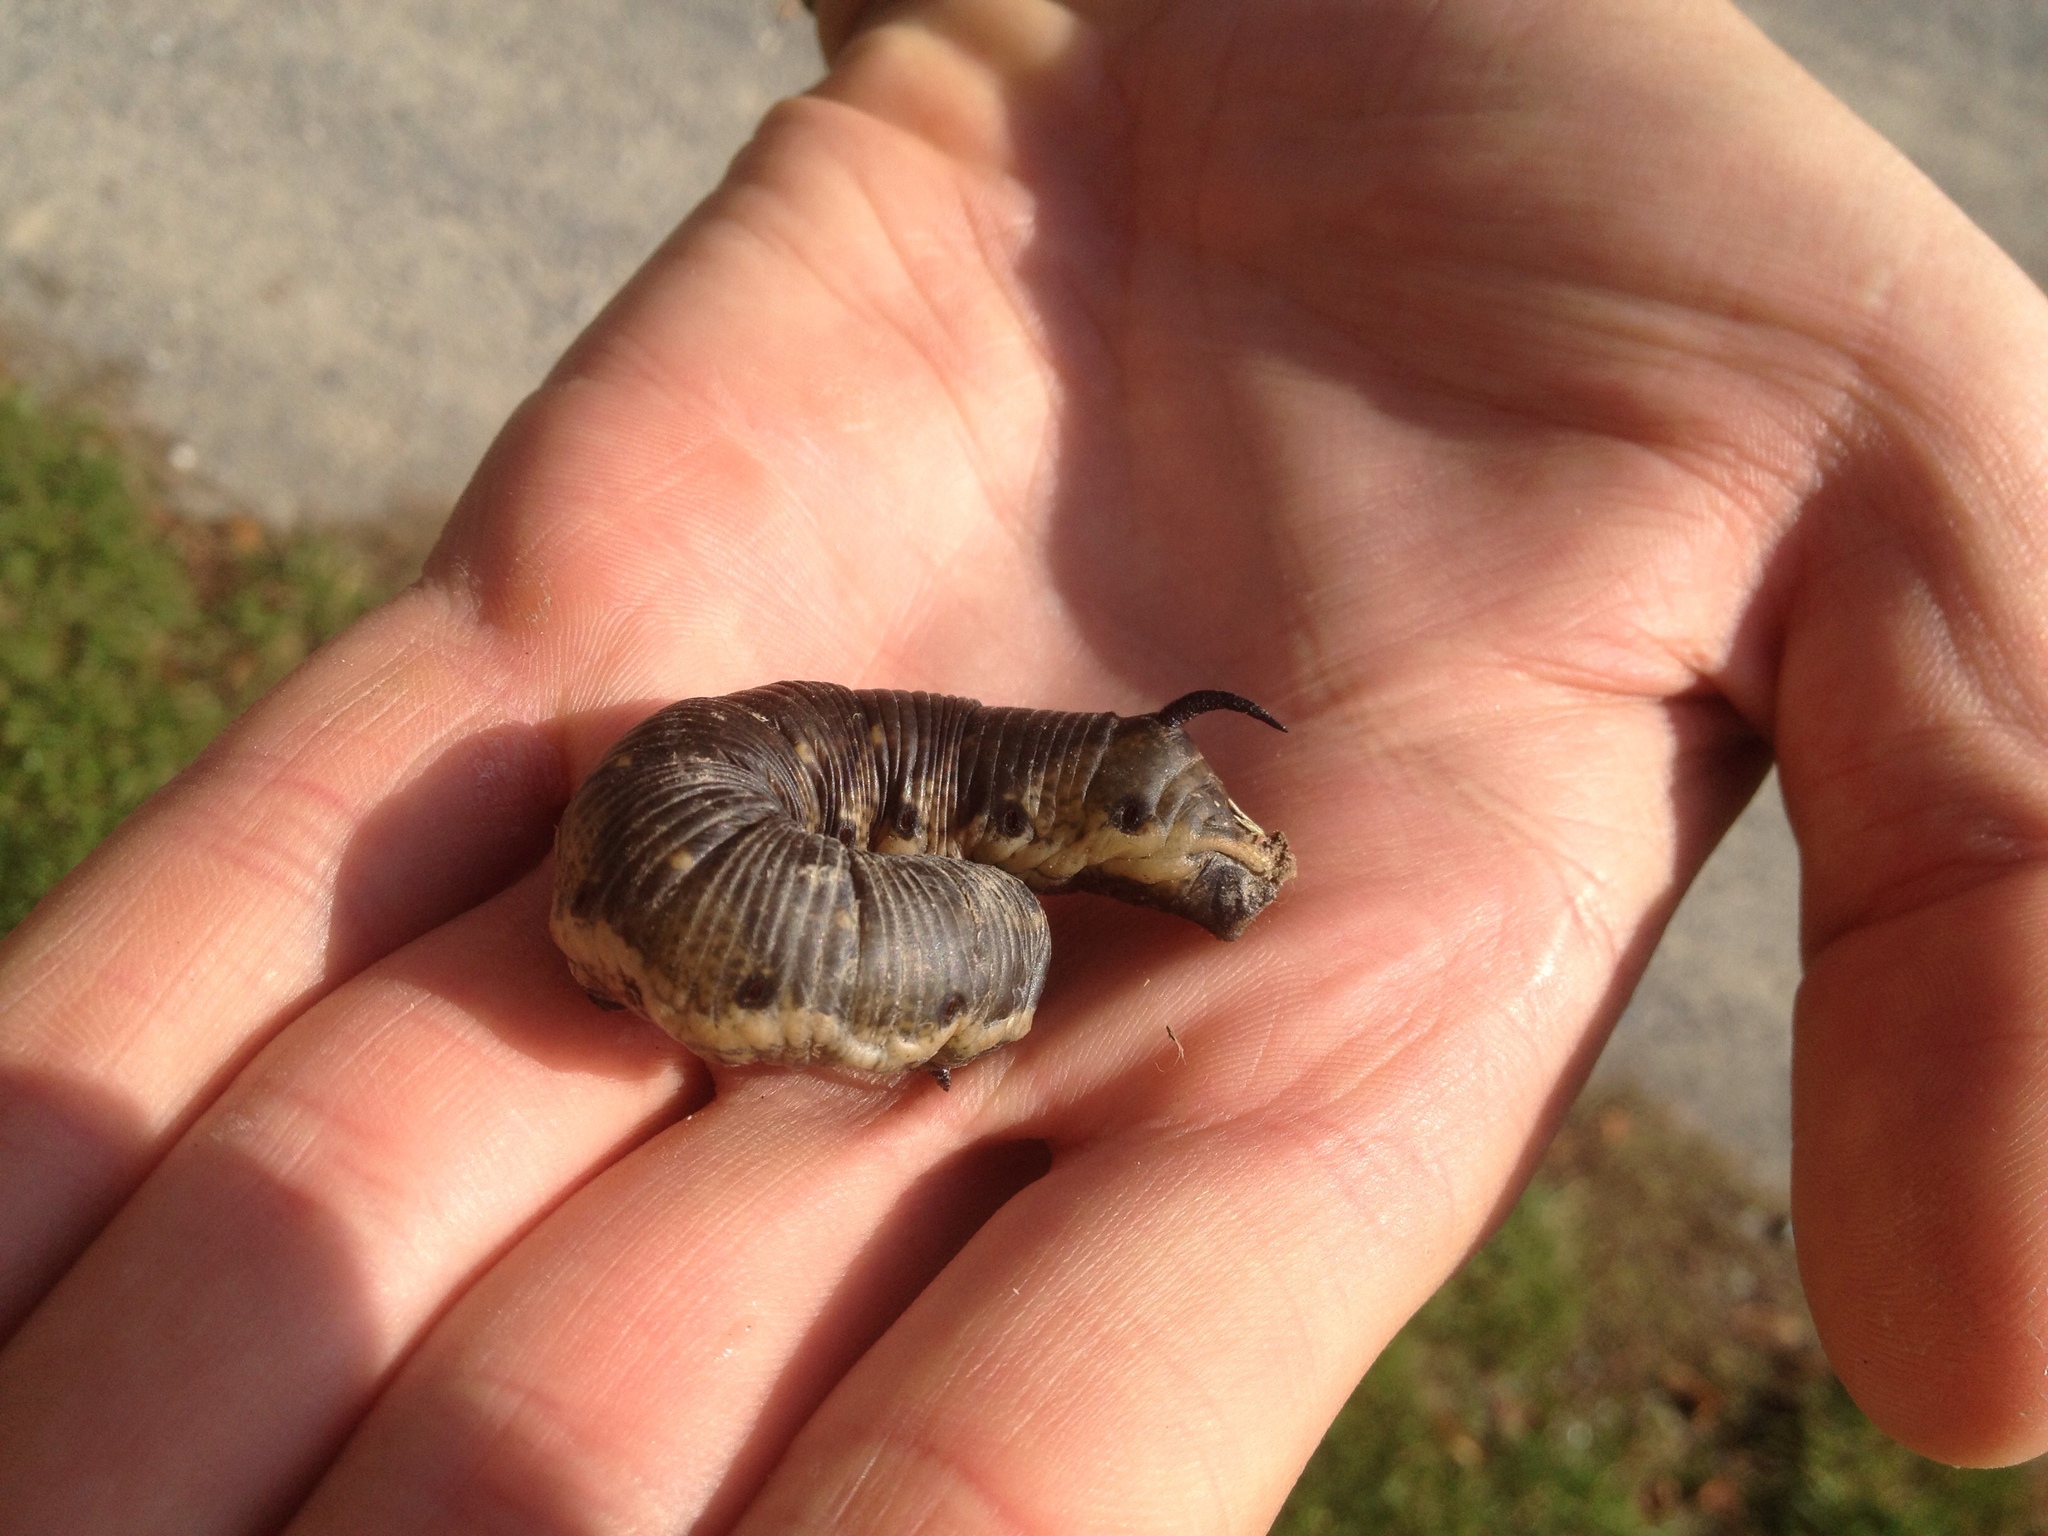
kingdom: Animalia
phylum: Arthropoda
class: Insecta
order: Lepidoptera
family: Sphingidae
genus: Agrius
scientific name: Agrius convolvuli
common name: Convolvulus hawkmoth
